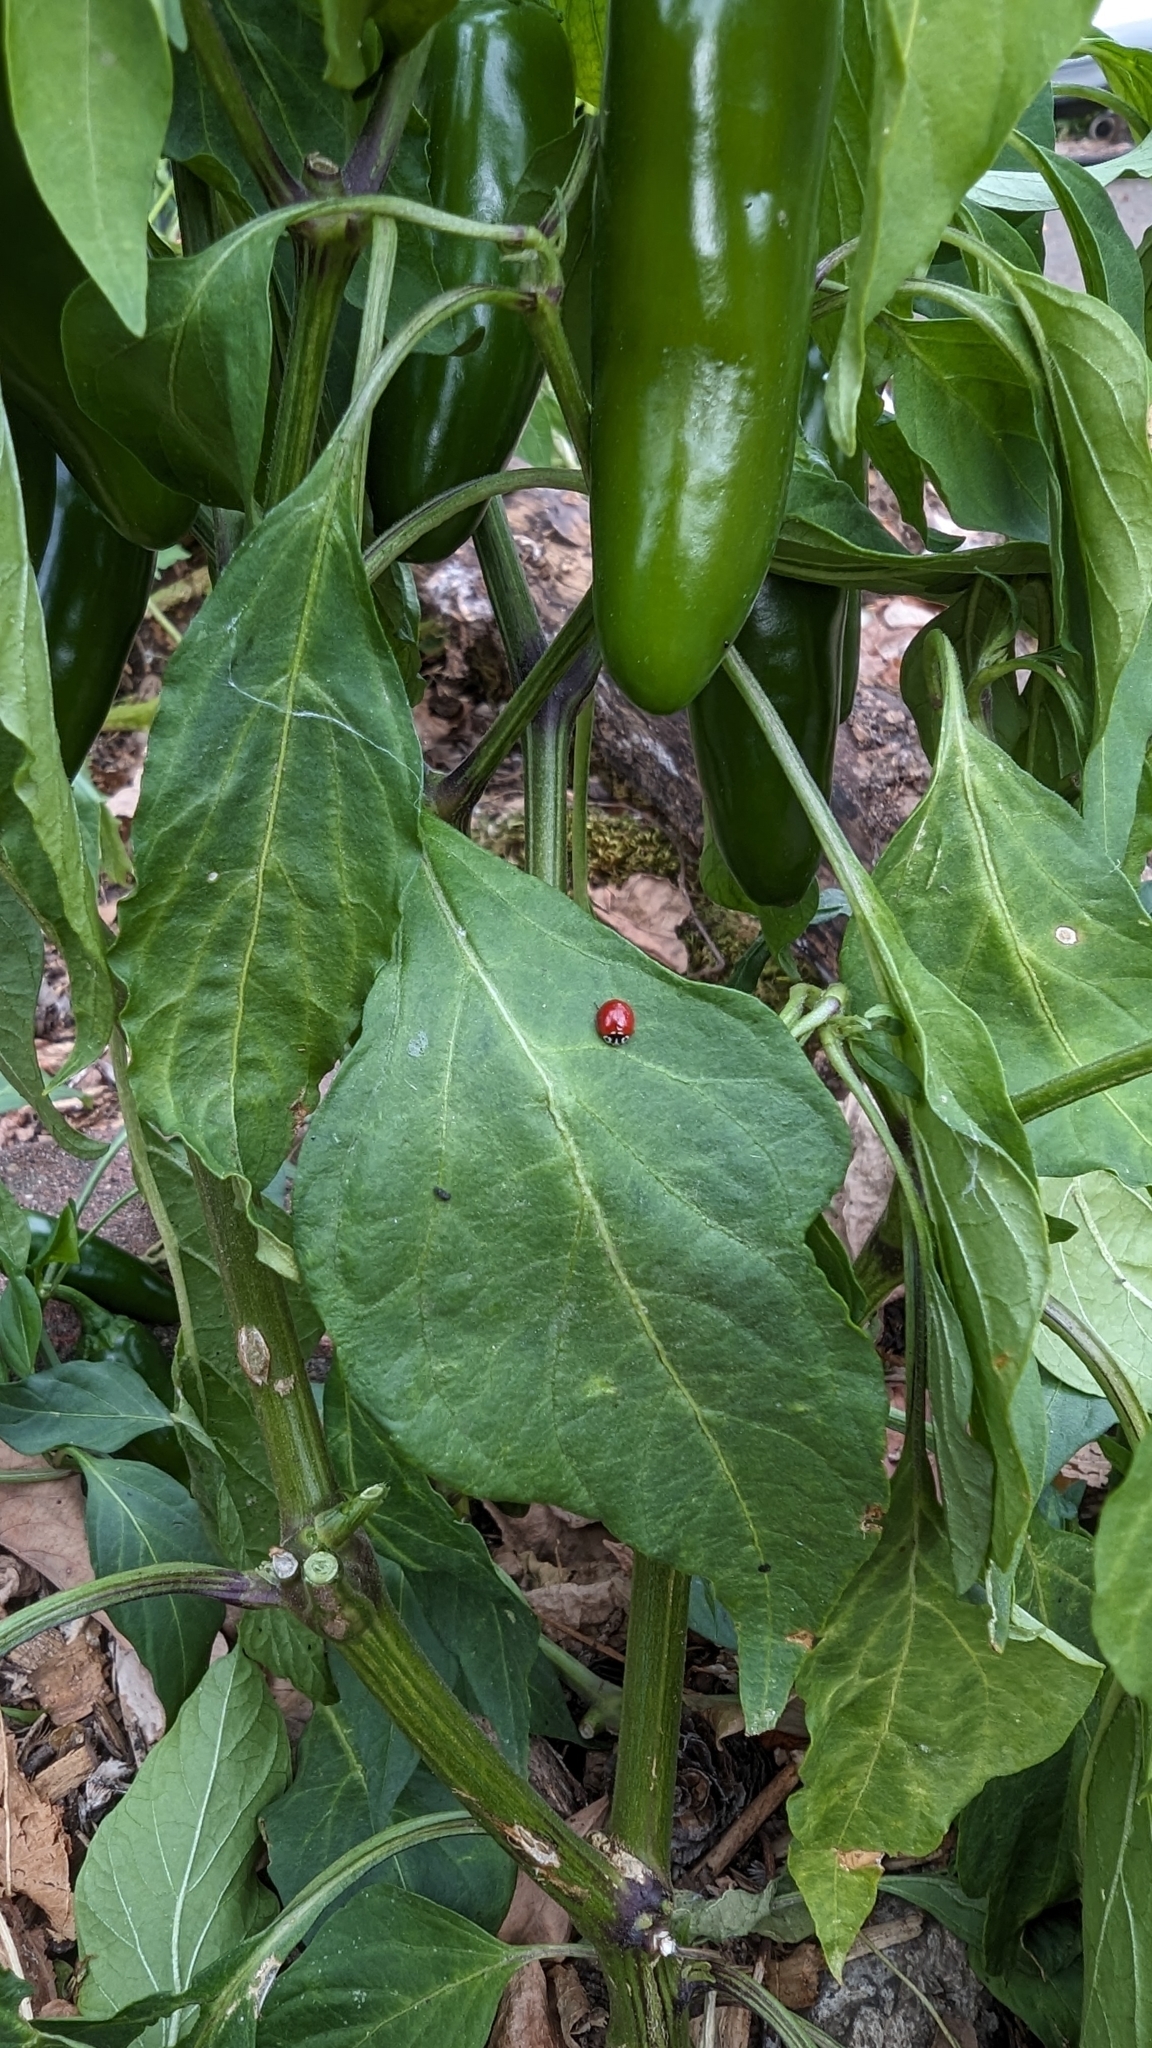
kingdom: Animalia
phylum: Arthropoda
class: Insecta
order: Coleoptera
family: Coccinellidae
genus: Cycloneda
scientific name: Cycloneda polita
